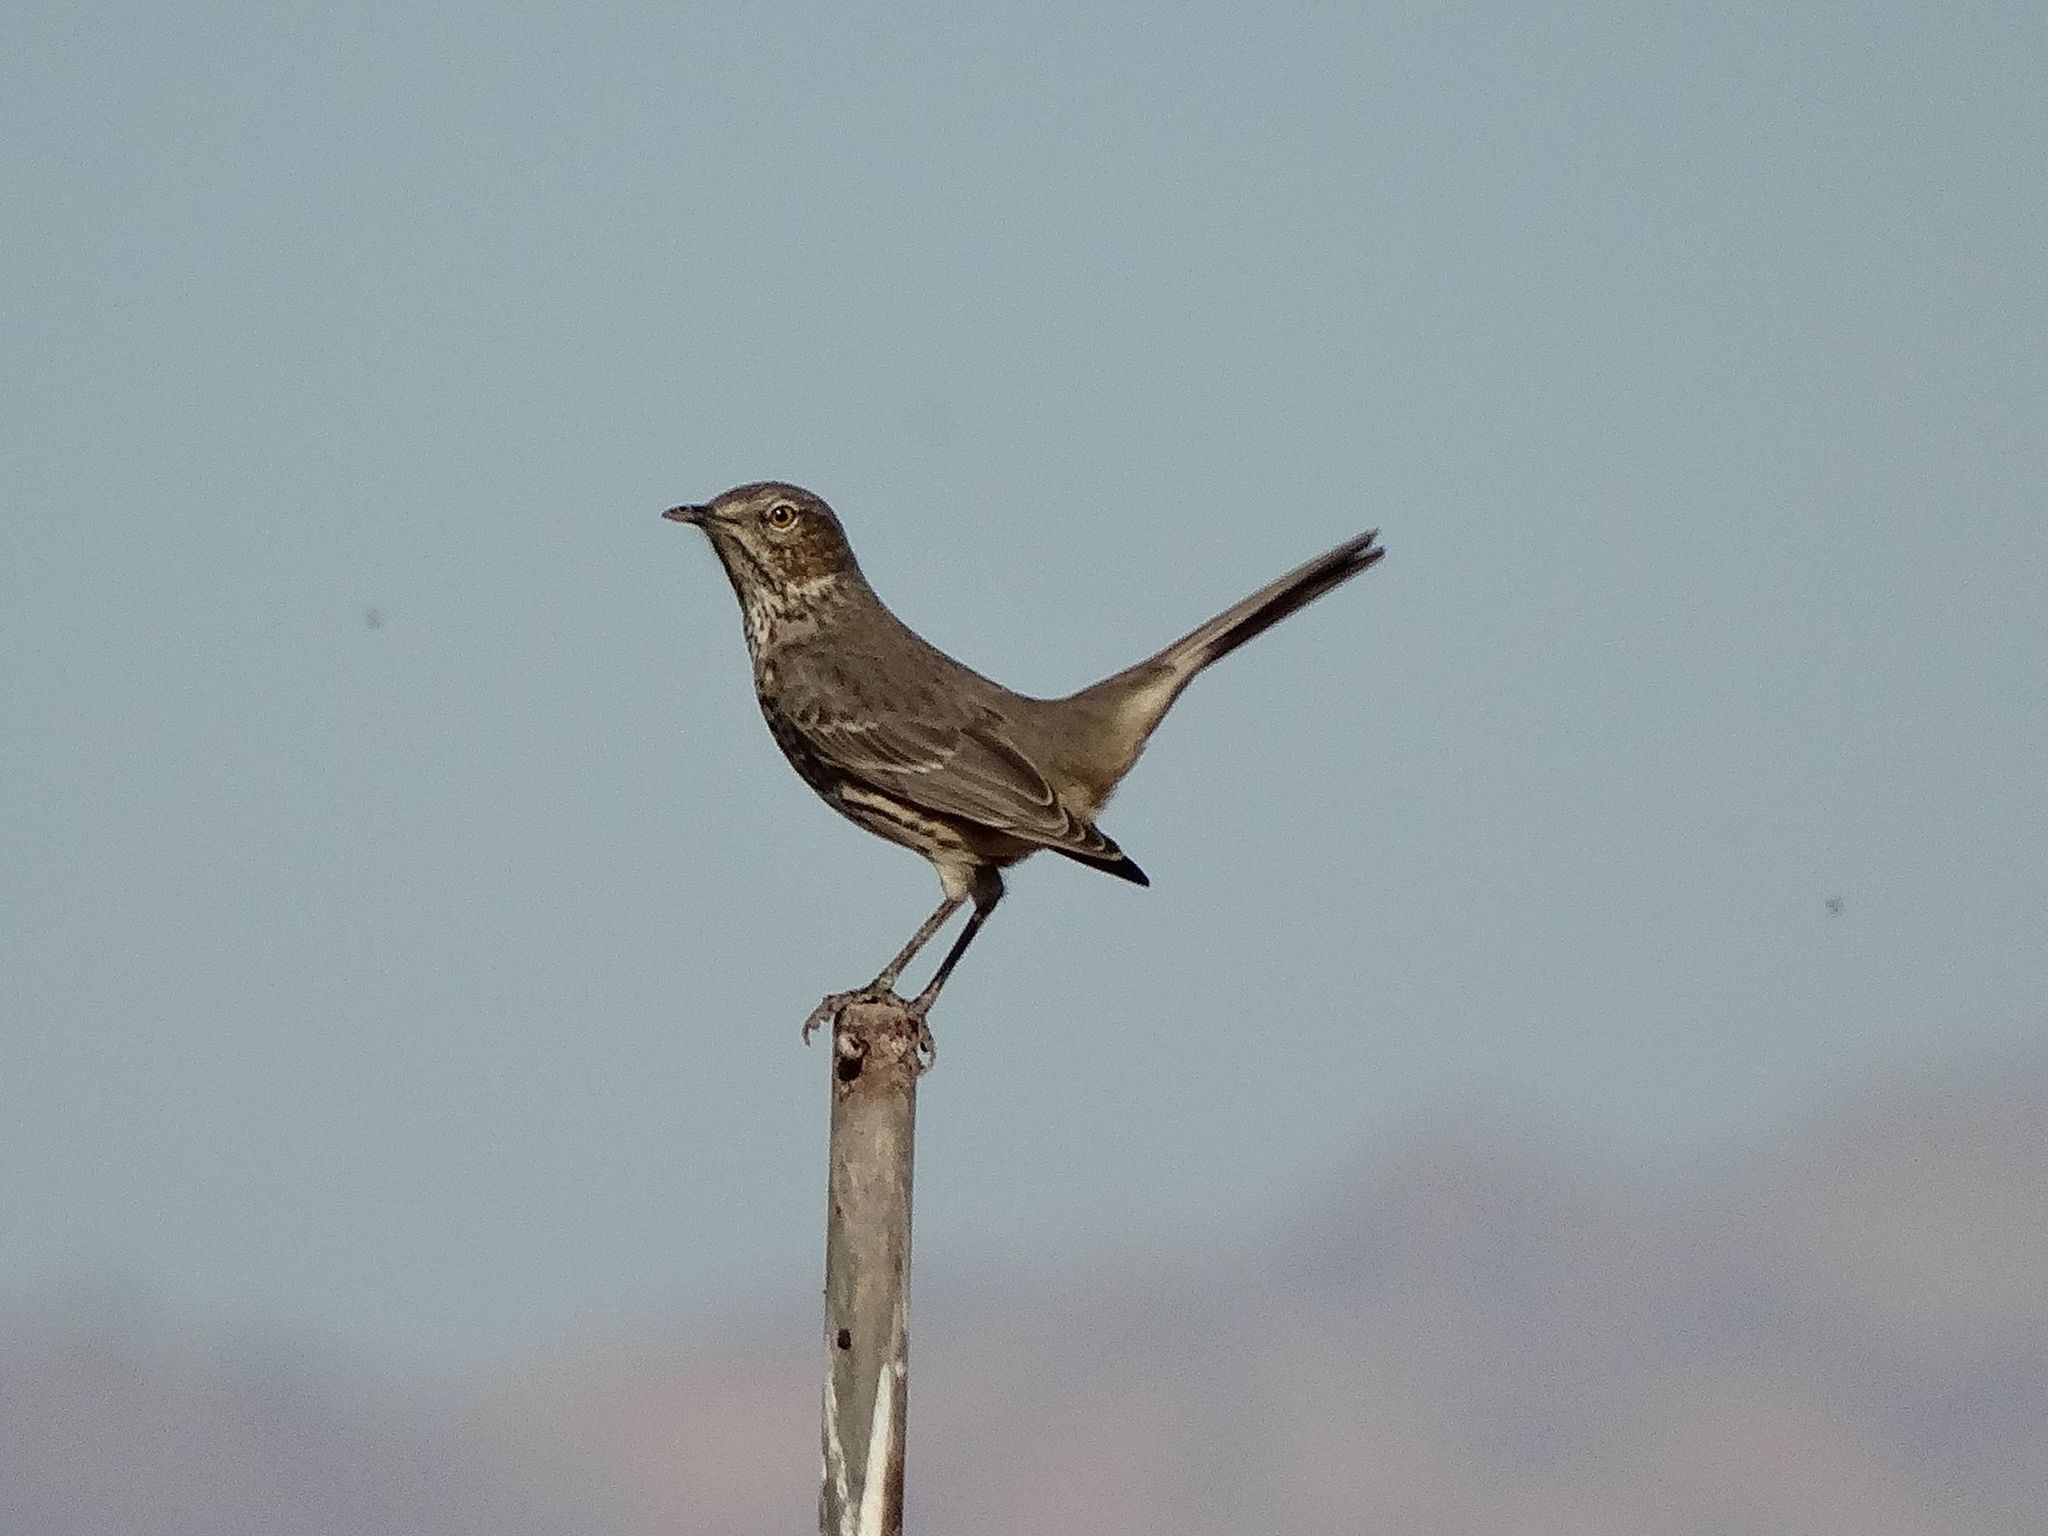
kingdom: Animalia
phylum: Chordata
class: Aves
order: Passeriformes
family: Mimidae
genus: Oreoscoptes
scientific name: Oreoscoptes montanus
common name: Sage thrasher
